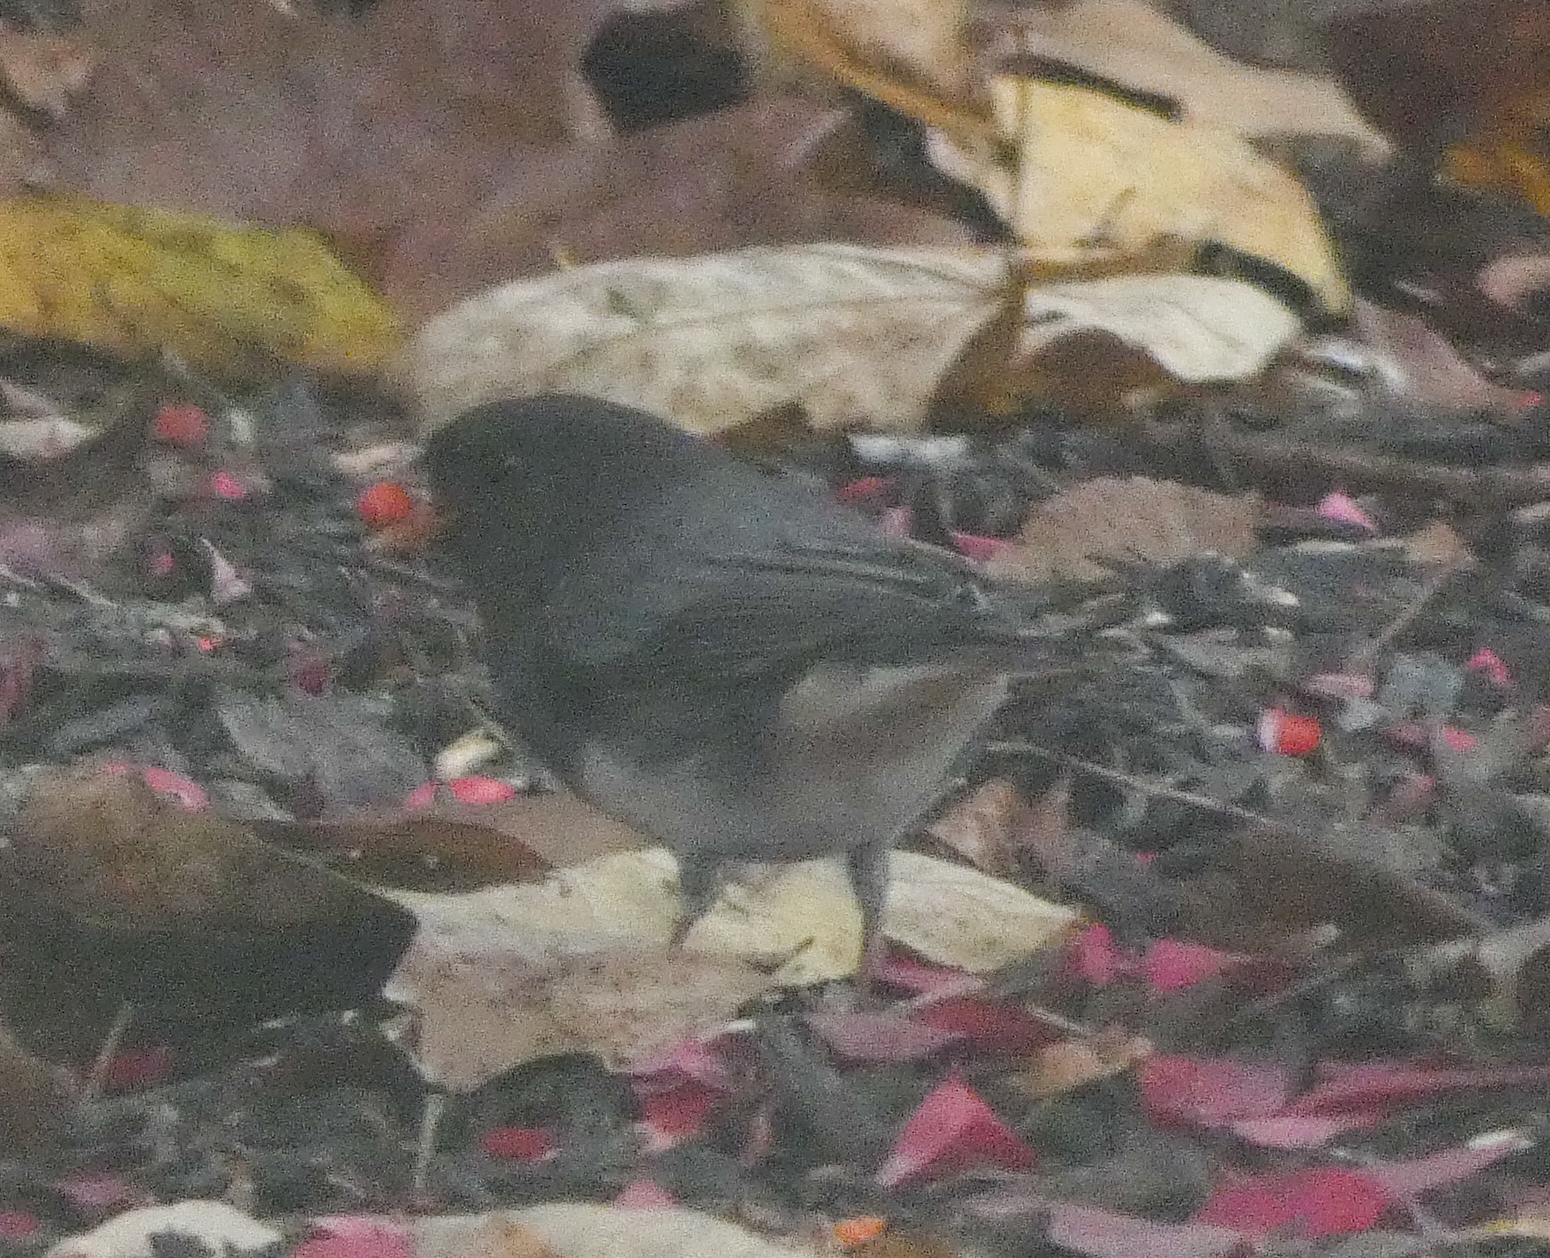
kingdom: Animalia
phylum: Chordata
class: Aves
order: Passeriformes
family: Passerellidae
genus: Junco
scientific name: Junco hyemalis
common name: Dark-eyed junco
